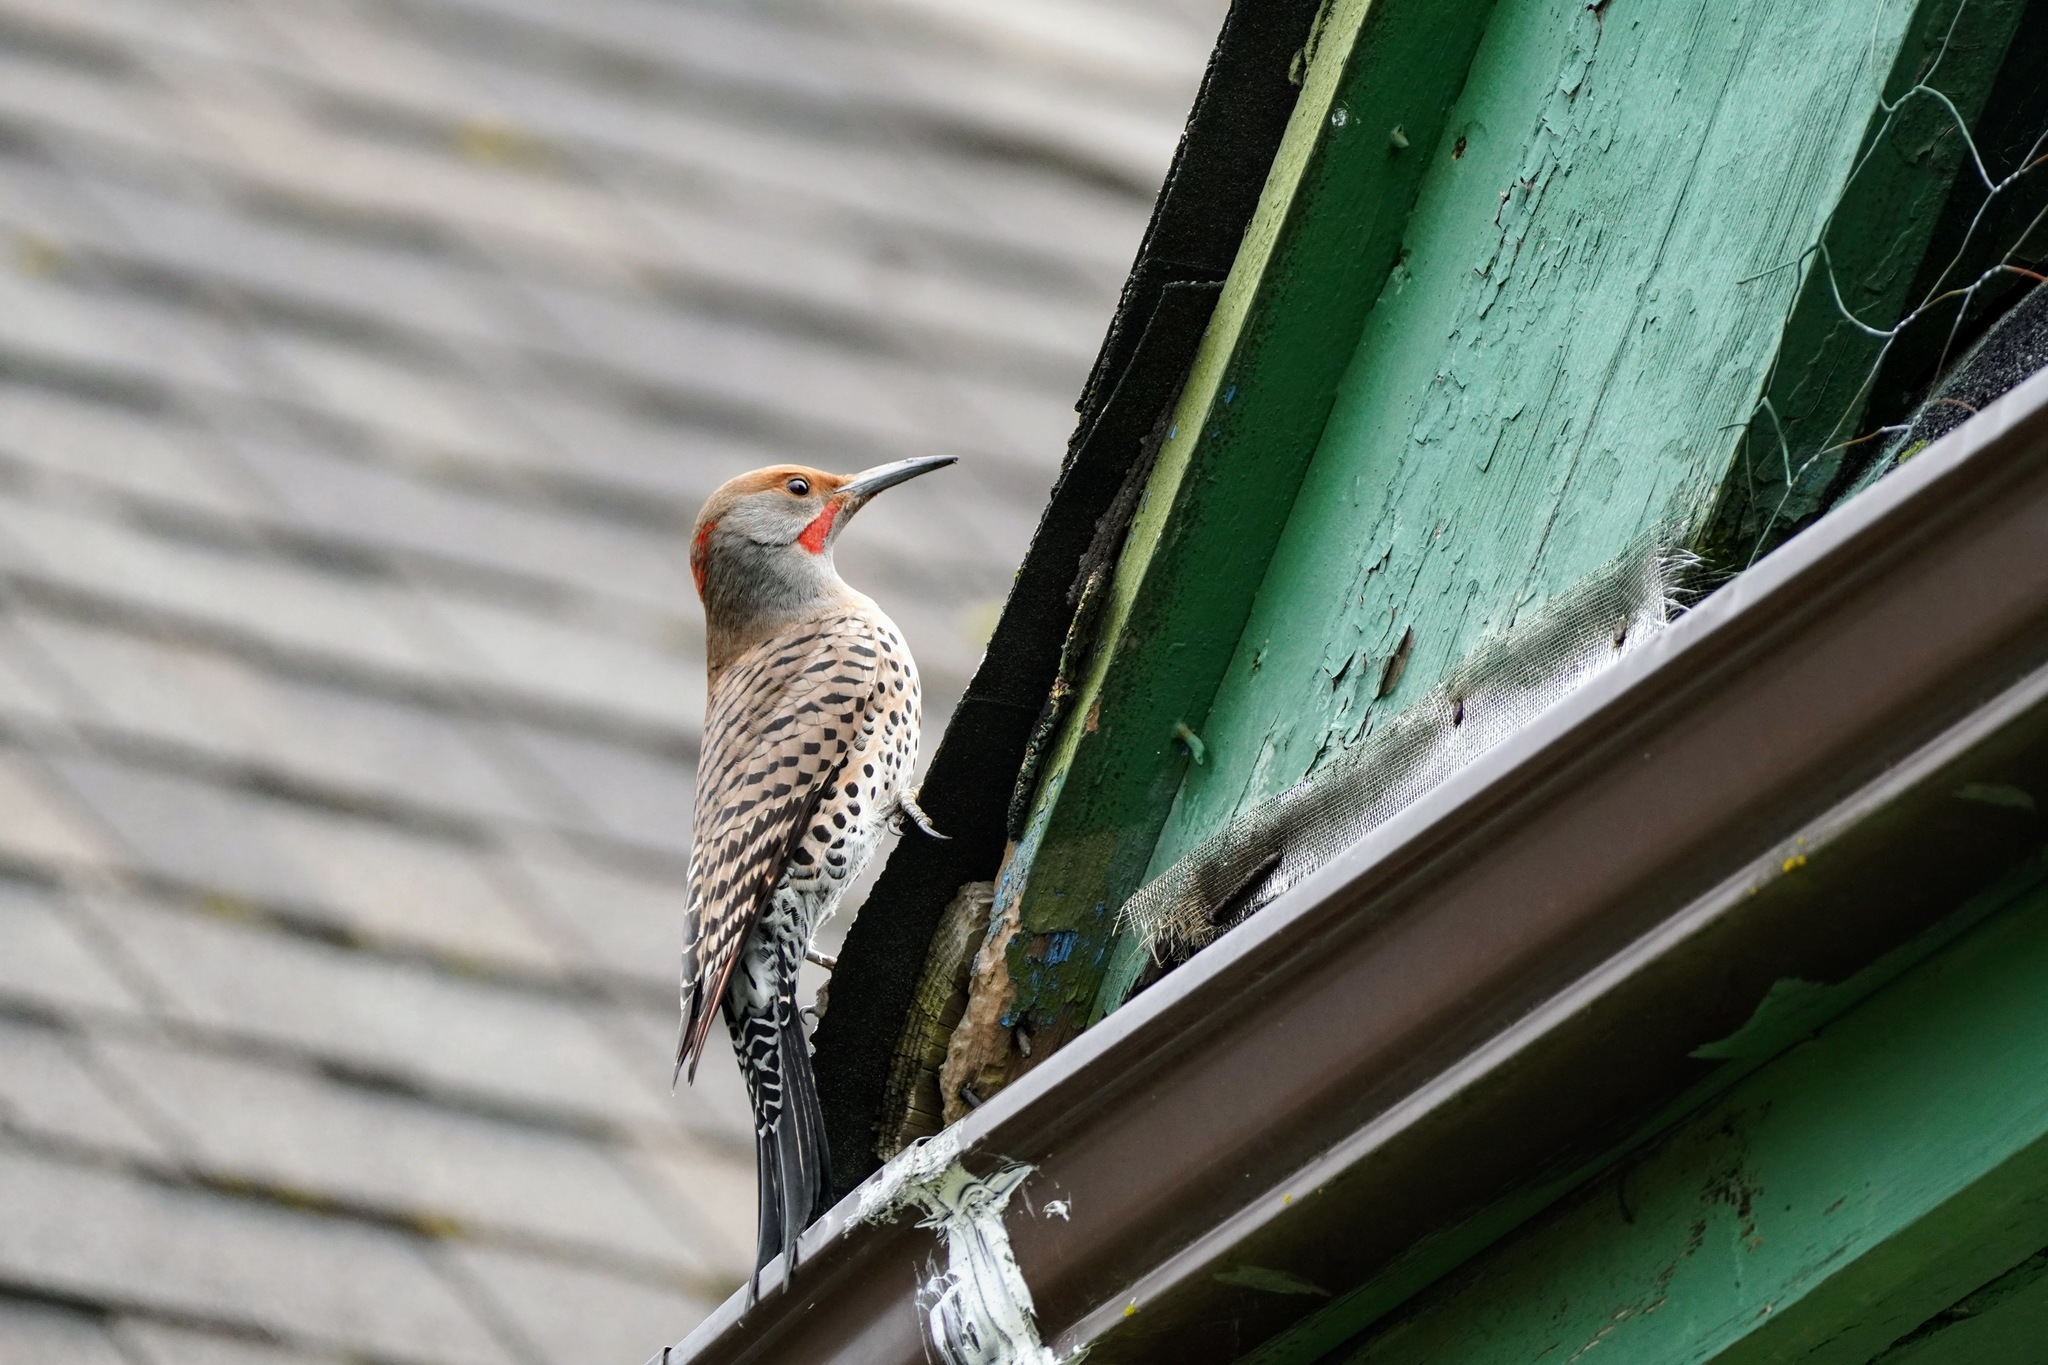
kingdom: Animalia
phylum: Chordata
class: Aves
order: Piciformes
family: Picidae
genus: Colaptes
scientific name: Colaptes auratus
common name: Northern flicker
